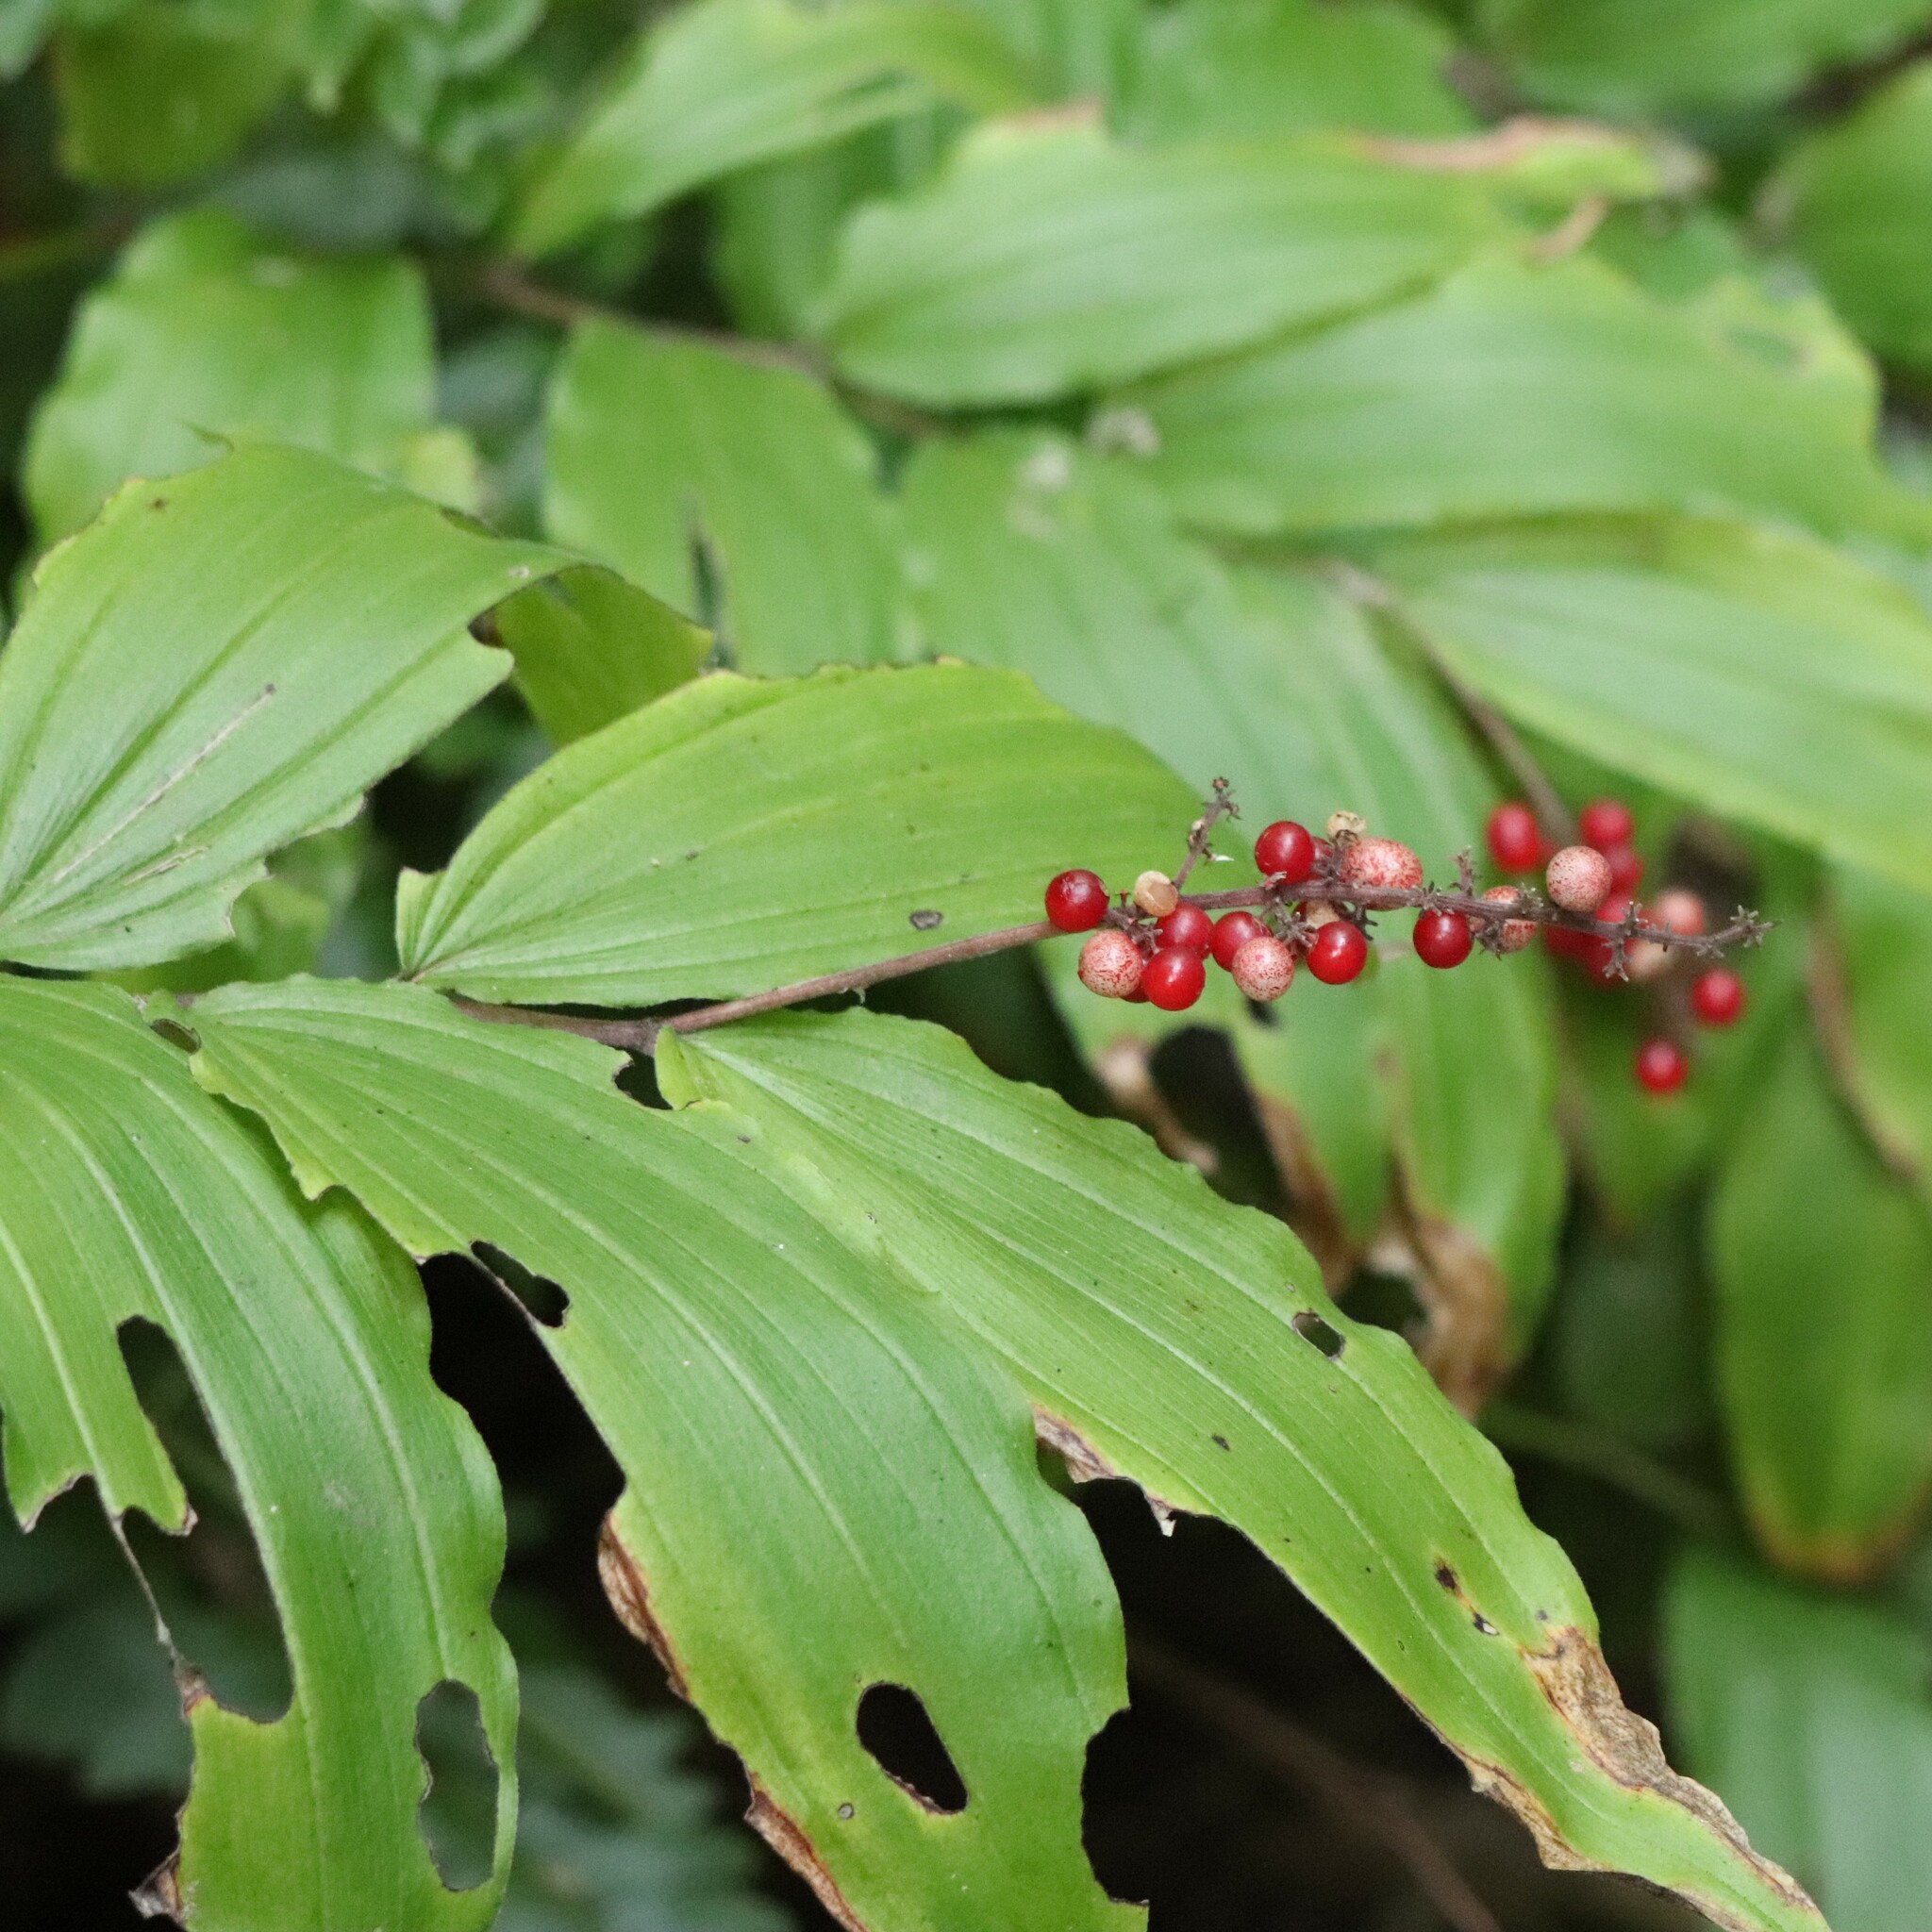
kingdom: Plantae
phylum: Tracheophyta
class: Liliopsida
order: Asparagales
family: Asparagaceae
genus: Maianthemum
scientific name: Maianthemum racemosum
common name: False spikenard
